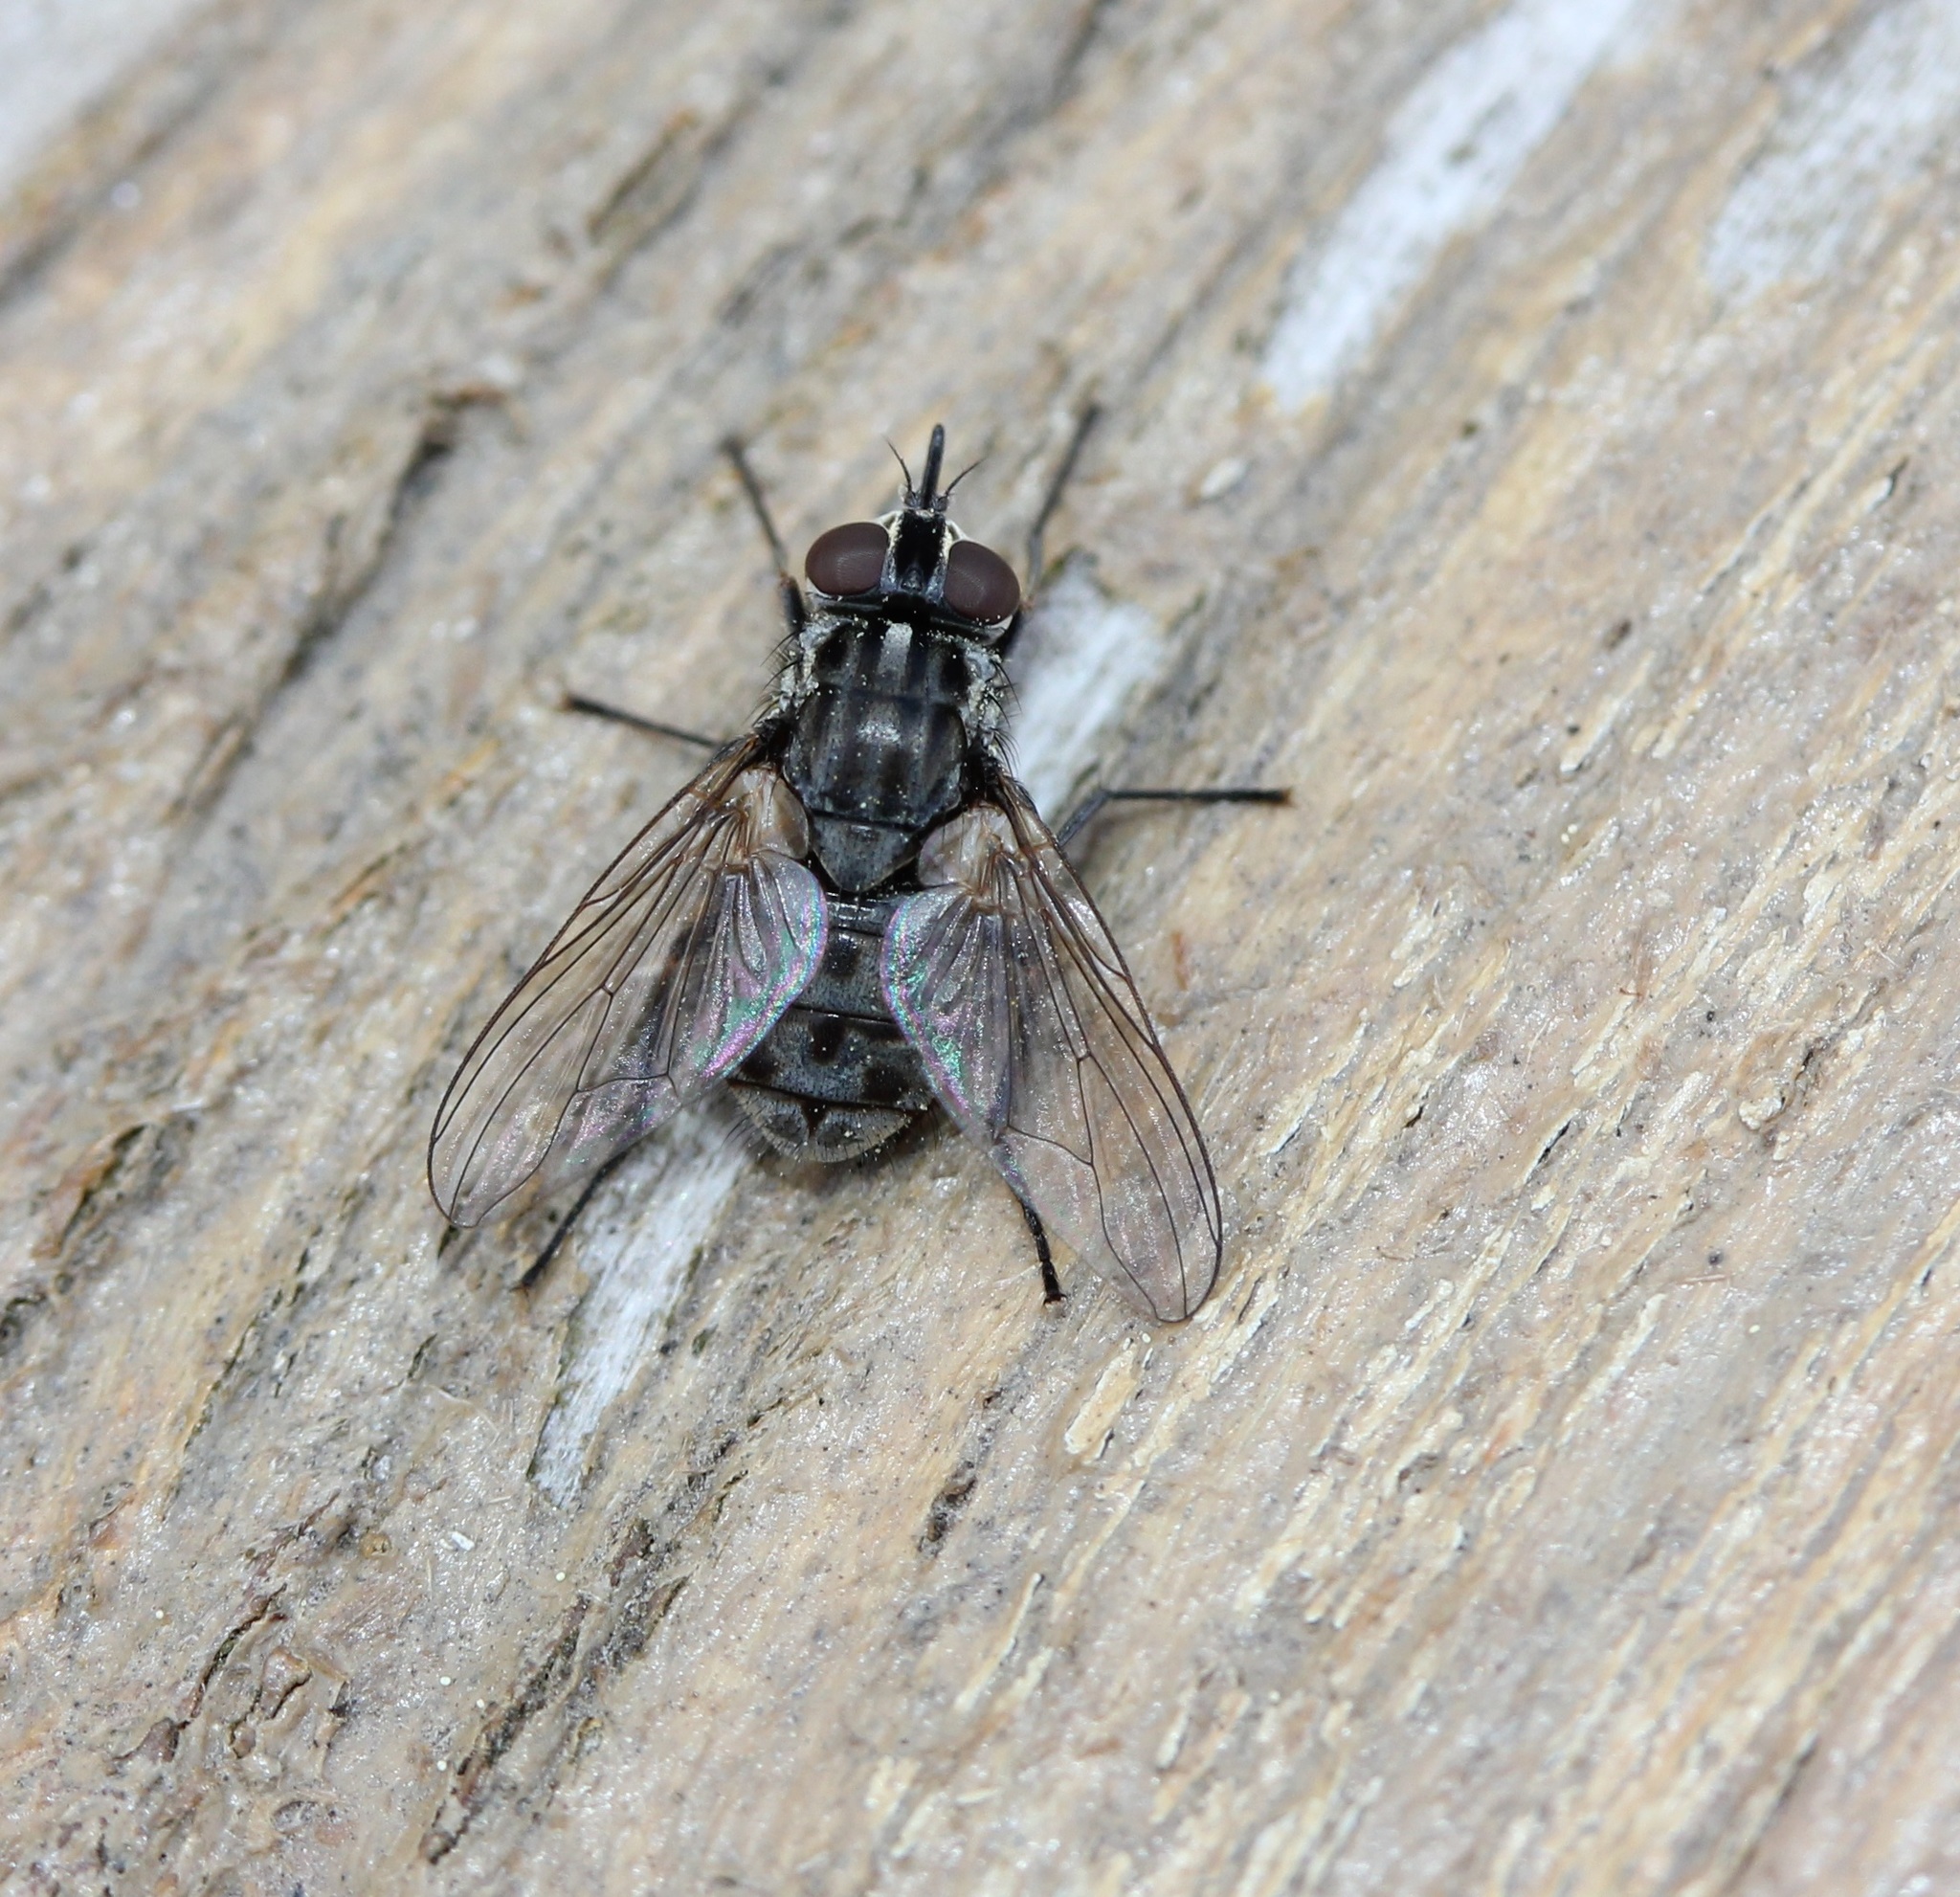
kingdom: Animalia
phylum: Arthropoda
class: Insecta
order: Diptera
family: Muscidae
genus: Stomoxys
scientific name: Stomoxys calcitrans
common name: Stable fly
